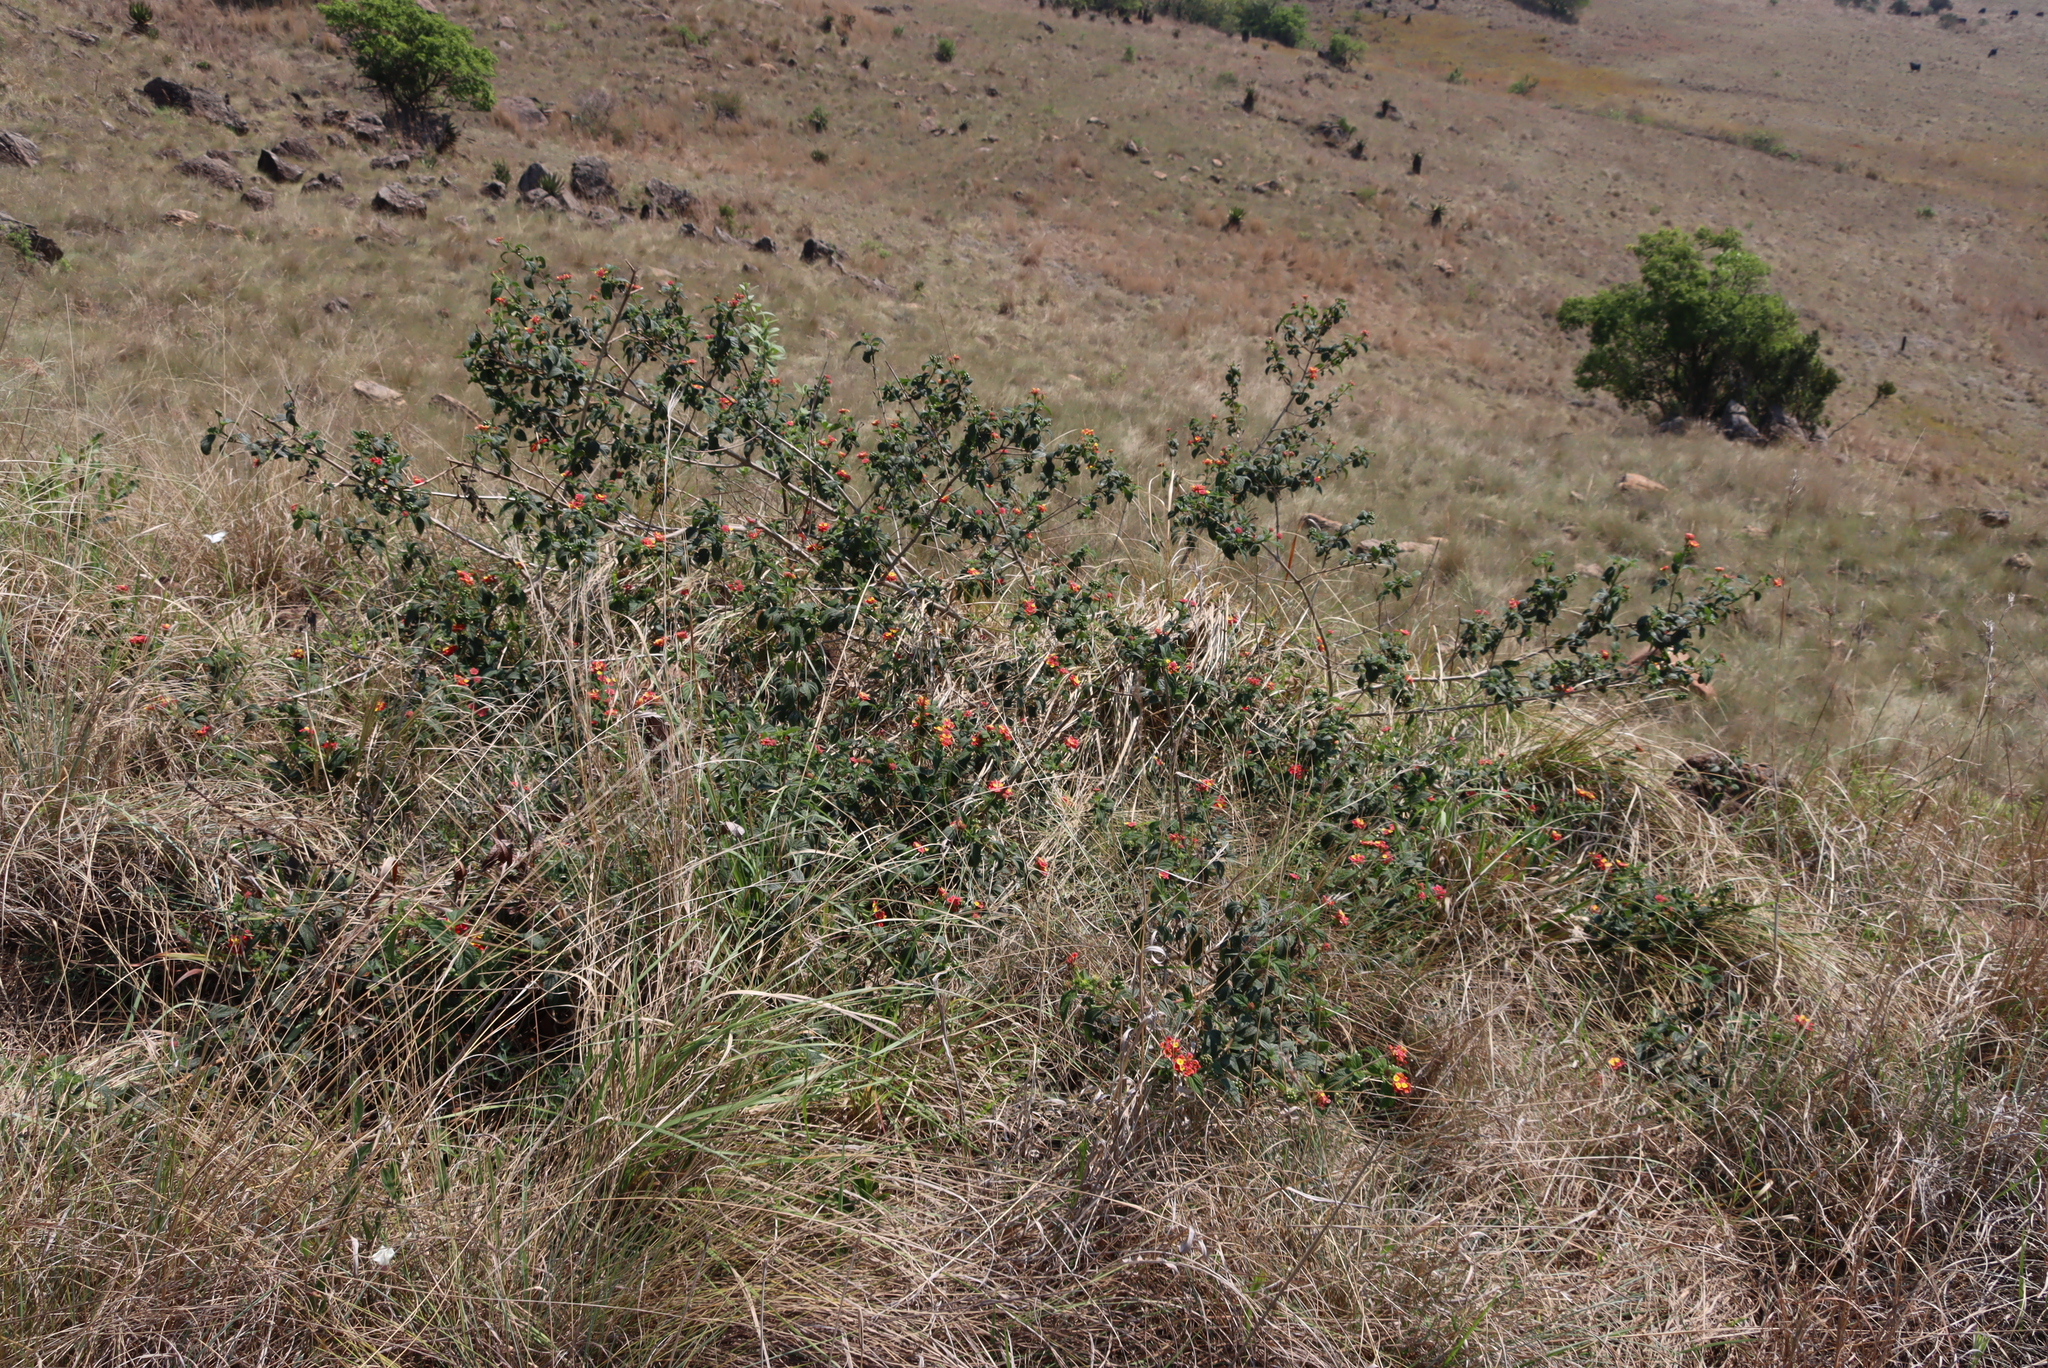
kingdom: Plantae
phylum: Tracheophyta
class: Magnoliopsida
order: Lamiales
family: Verbenaceae
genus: Lantana
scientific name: Lantana camara
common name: Lantana
